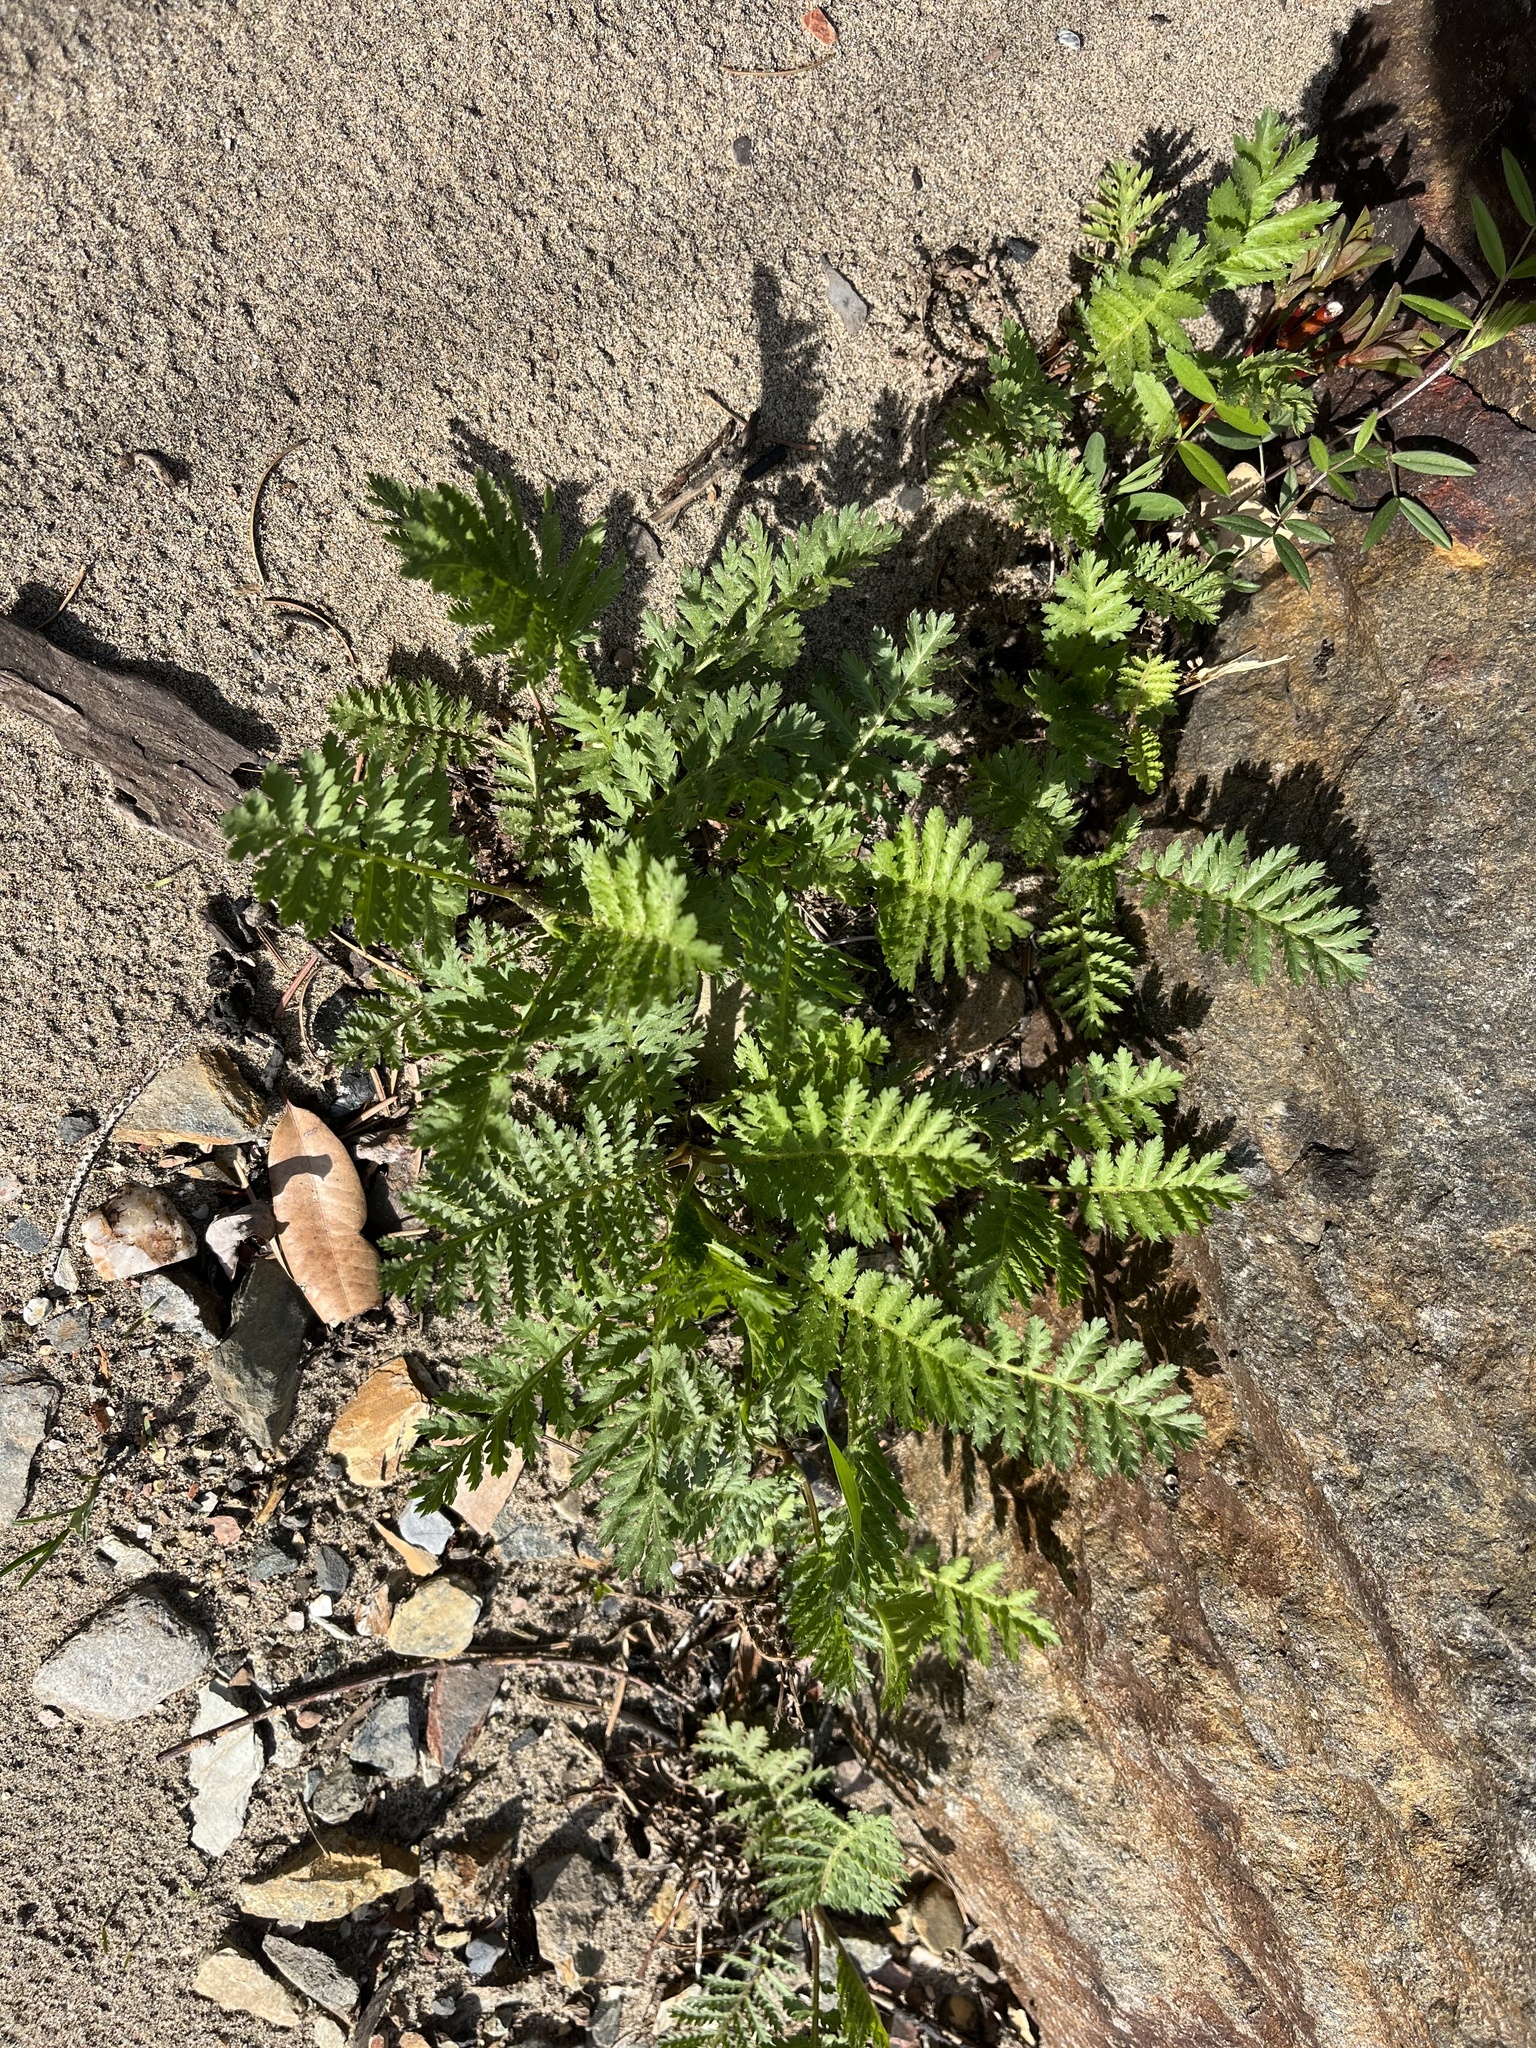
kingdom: Plantae
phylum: Tracheophyta
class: Magnoliopsida
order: Asterales
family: Asteraceae
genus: Tanacetum
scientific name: Tanacetum vulgare
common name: Common tansy
